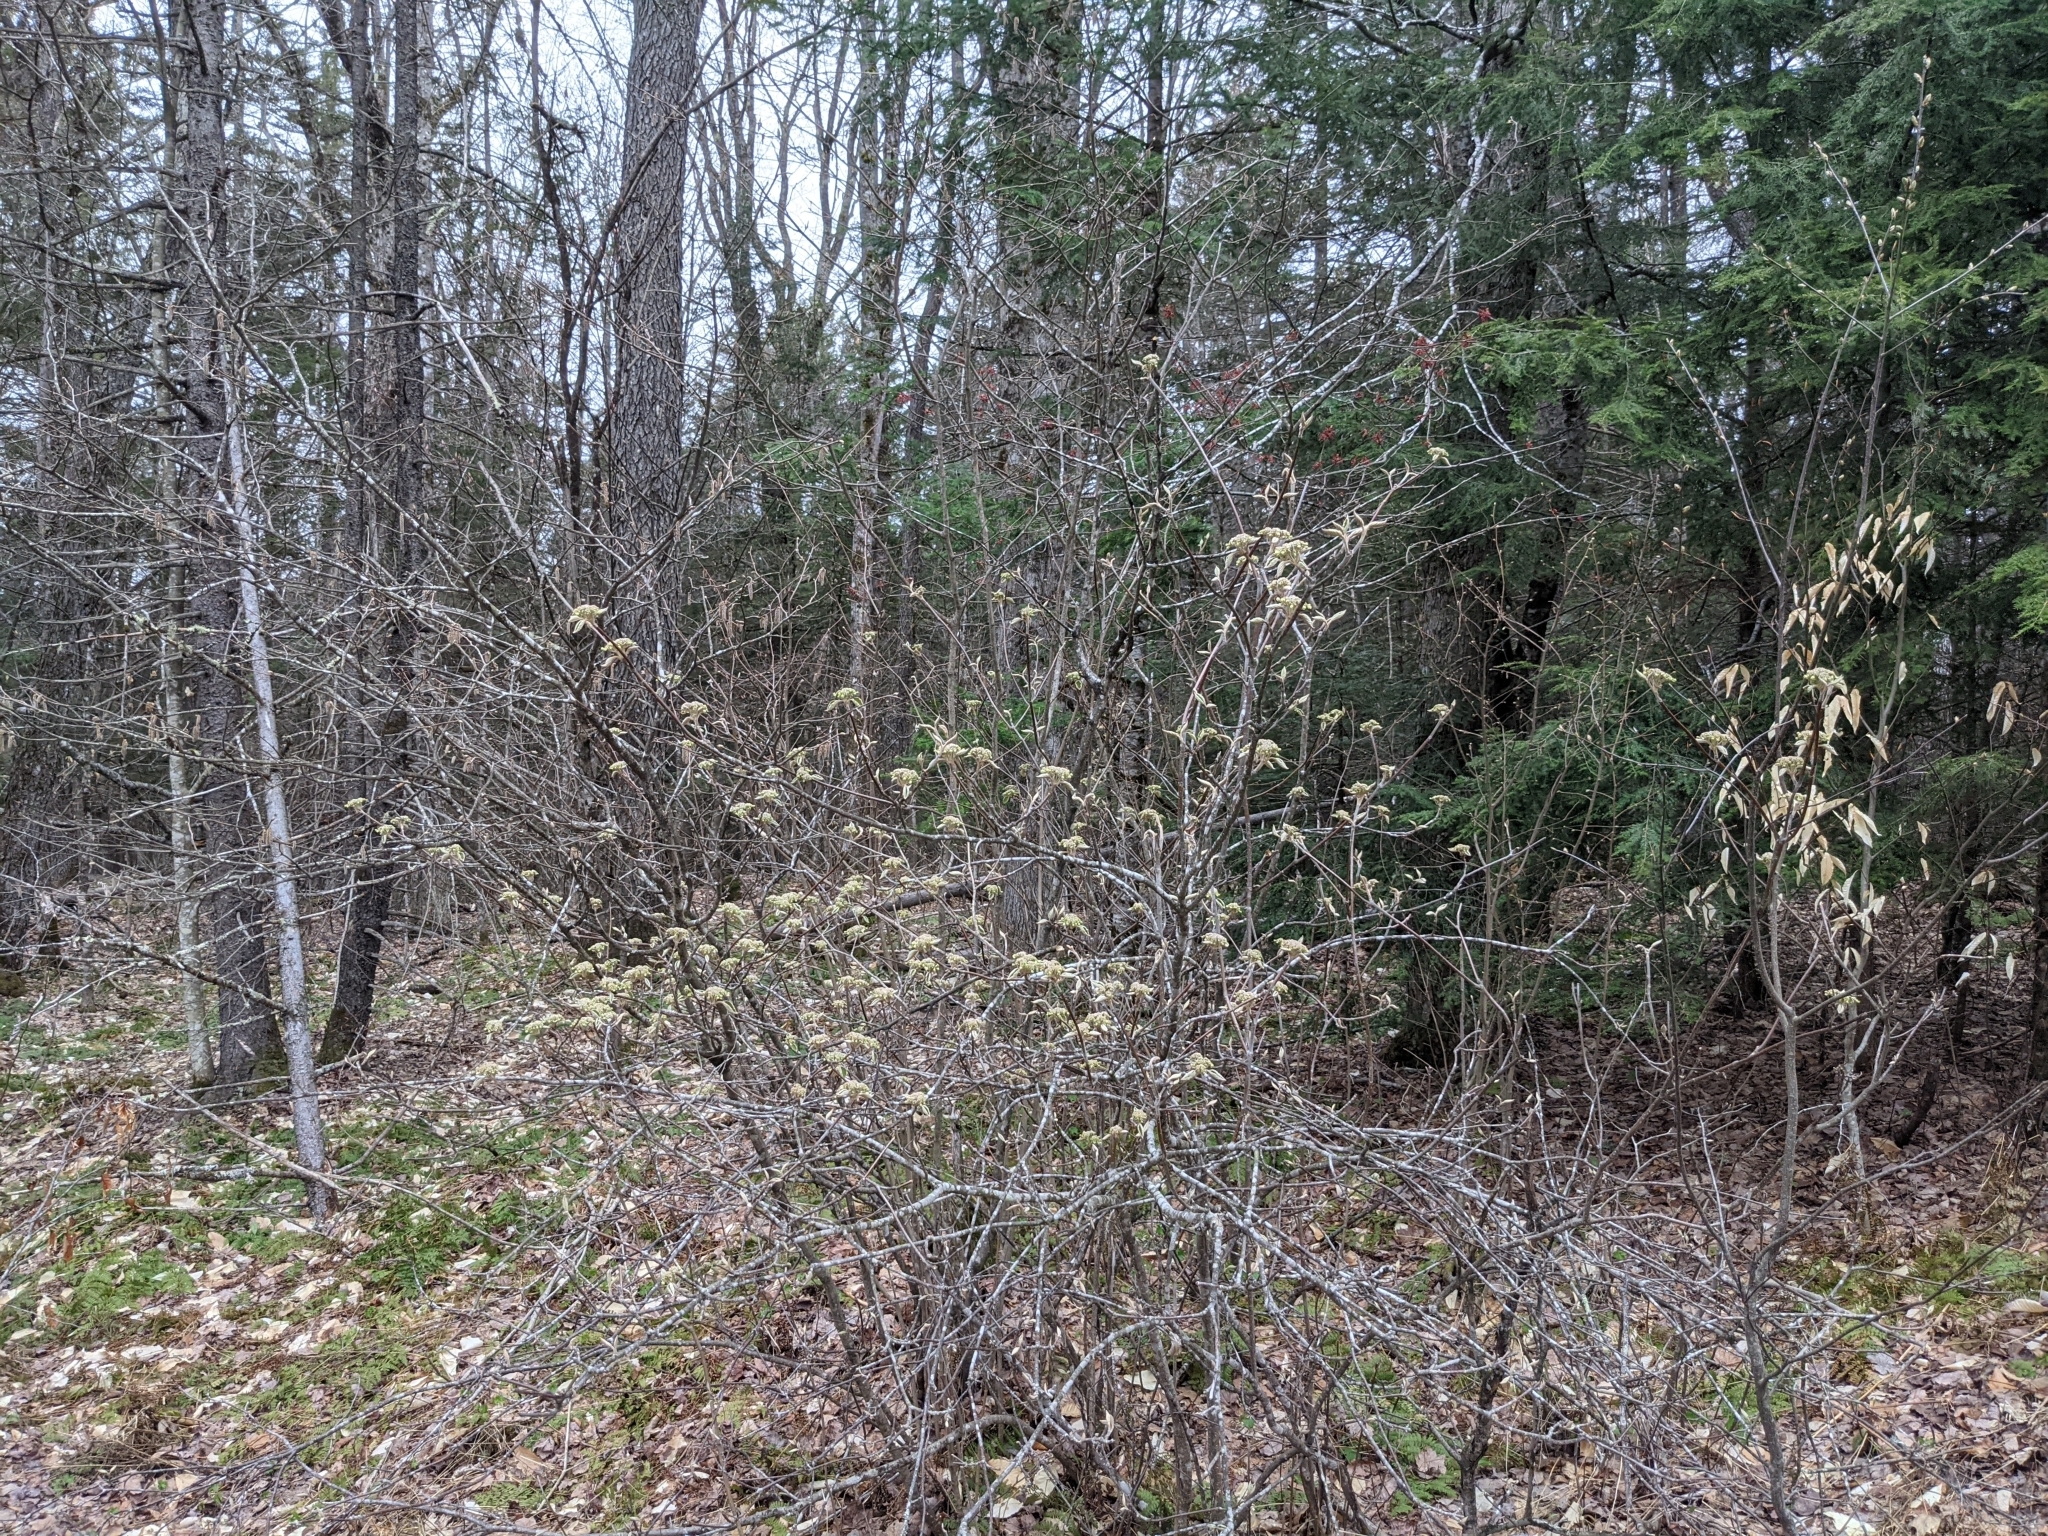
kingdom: Plantae
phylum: Tracheophyta
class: Magnoliopsida
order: Dipsacales
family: Viburnaceae
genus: Viburnum
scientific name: Viburnum lantanoides
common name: Hobblebush
